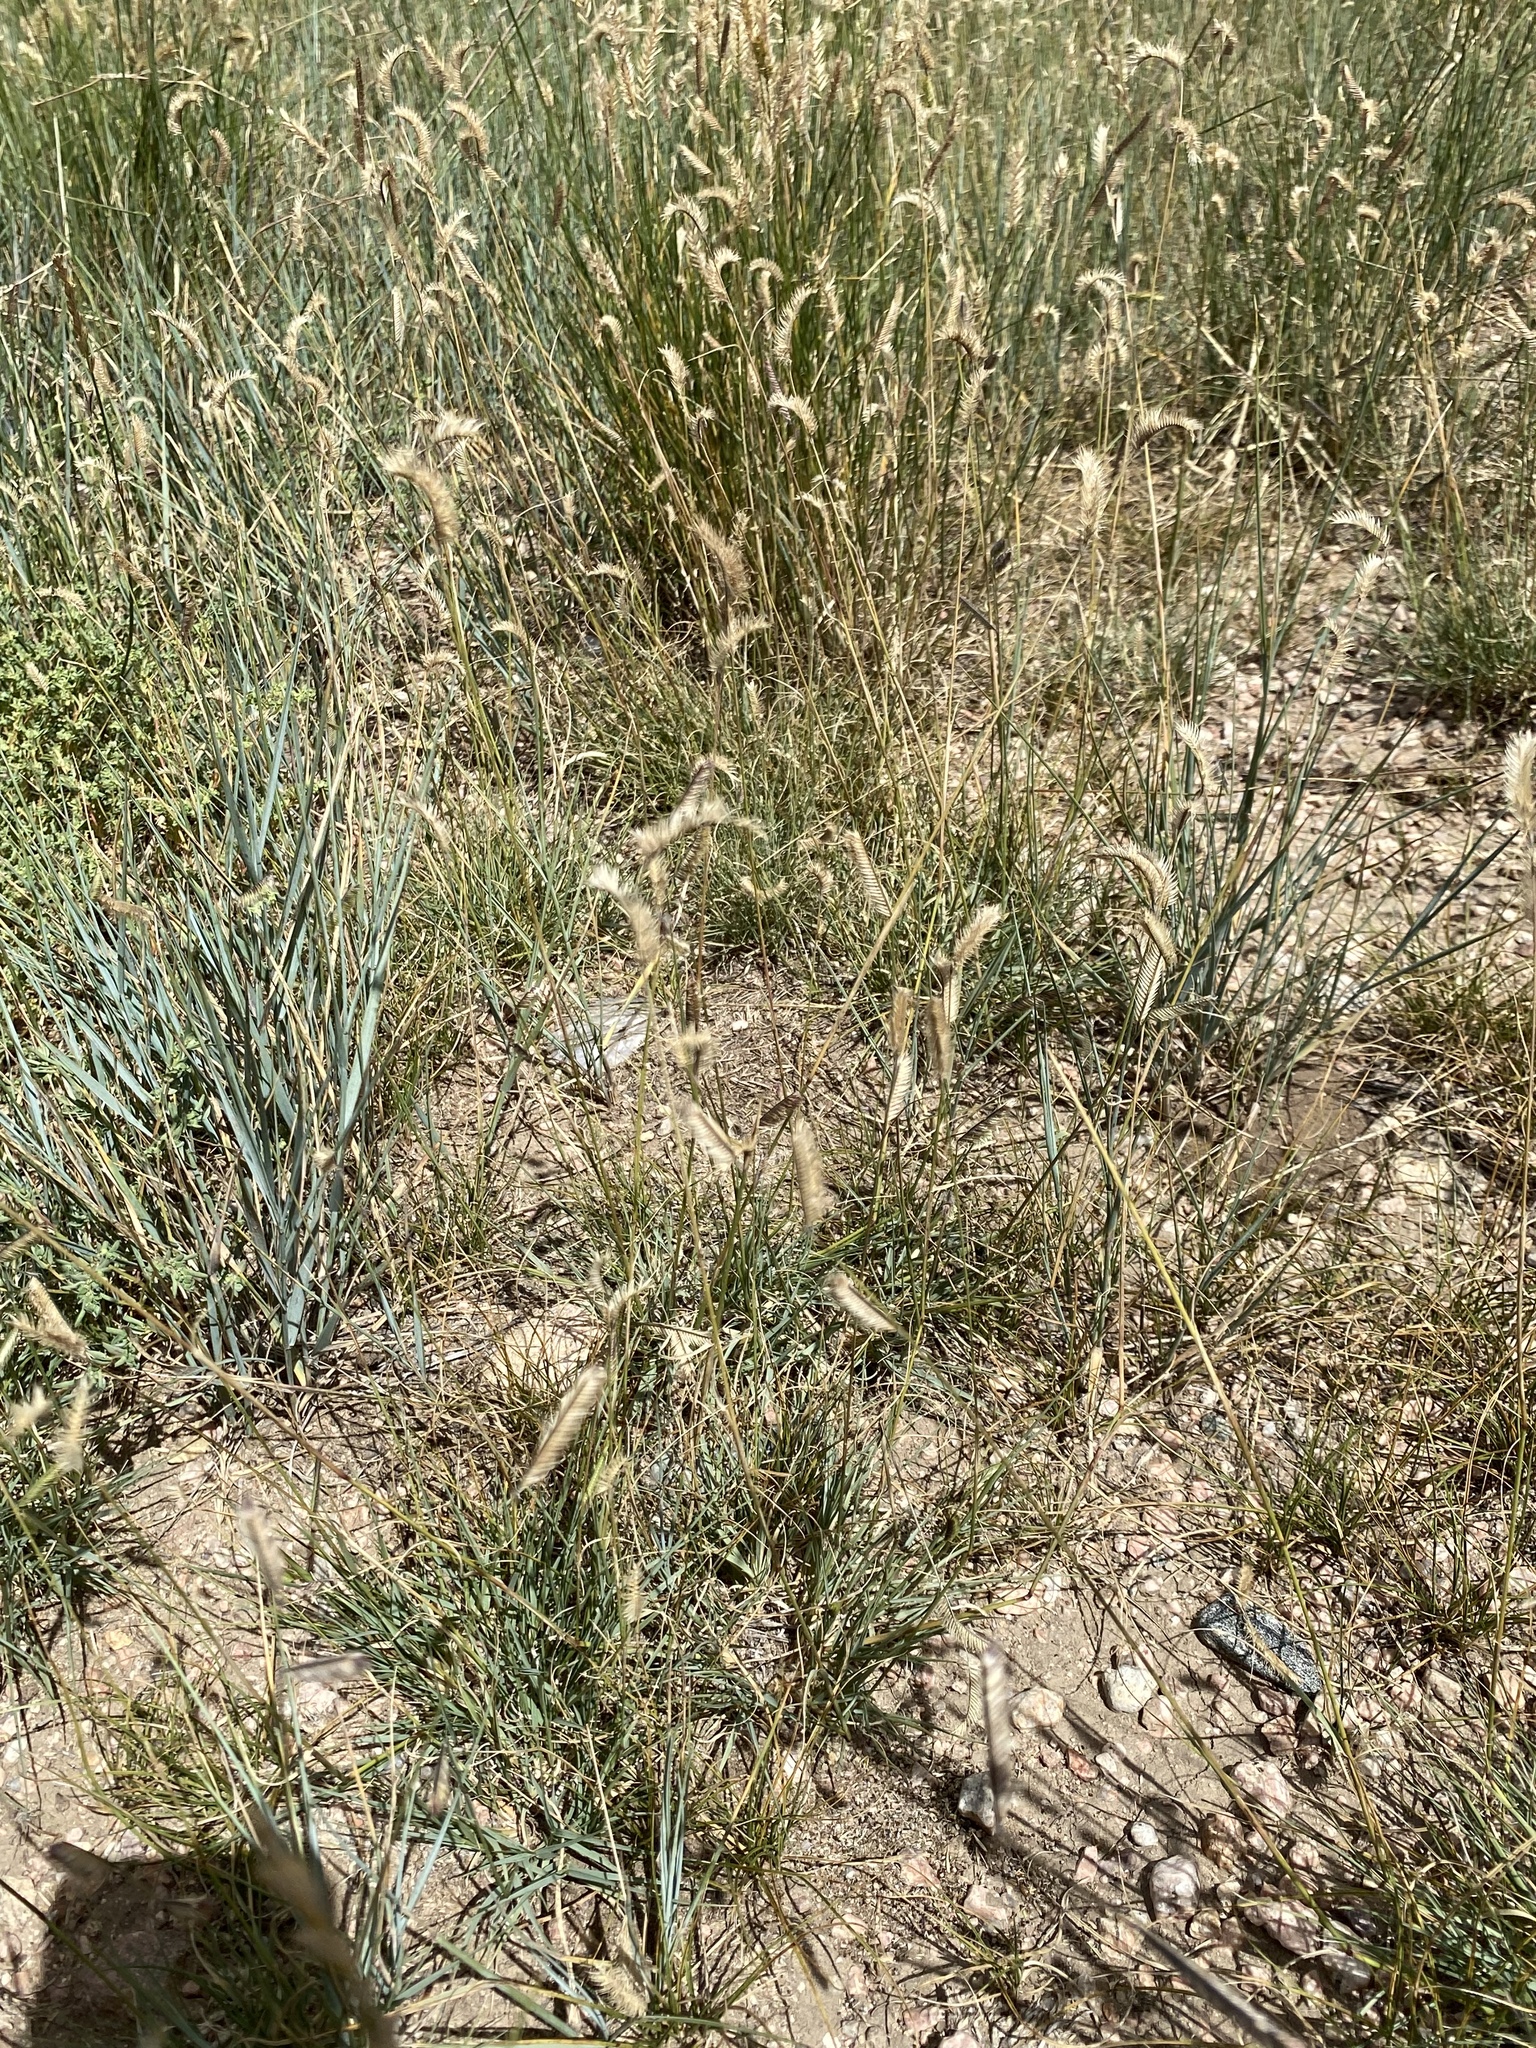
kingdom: Plantae
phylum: Tracheophyta
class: Liliopsida
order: Poales
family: Poaceae
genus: Bouteloua
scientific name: Bouteloua gracilis
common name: Blue grama
